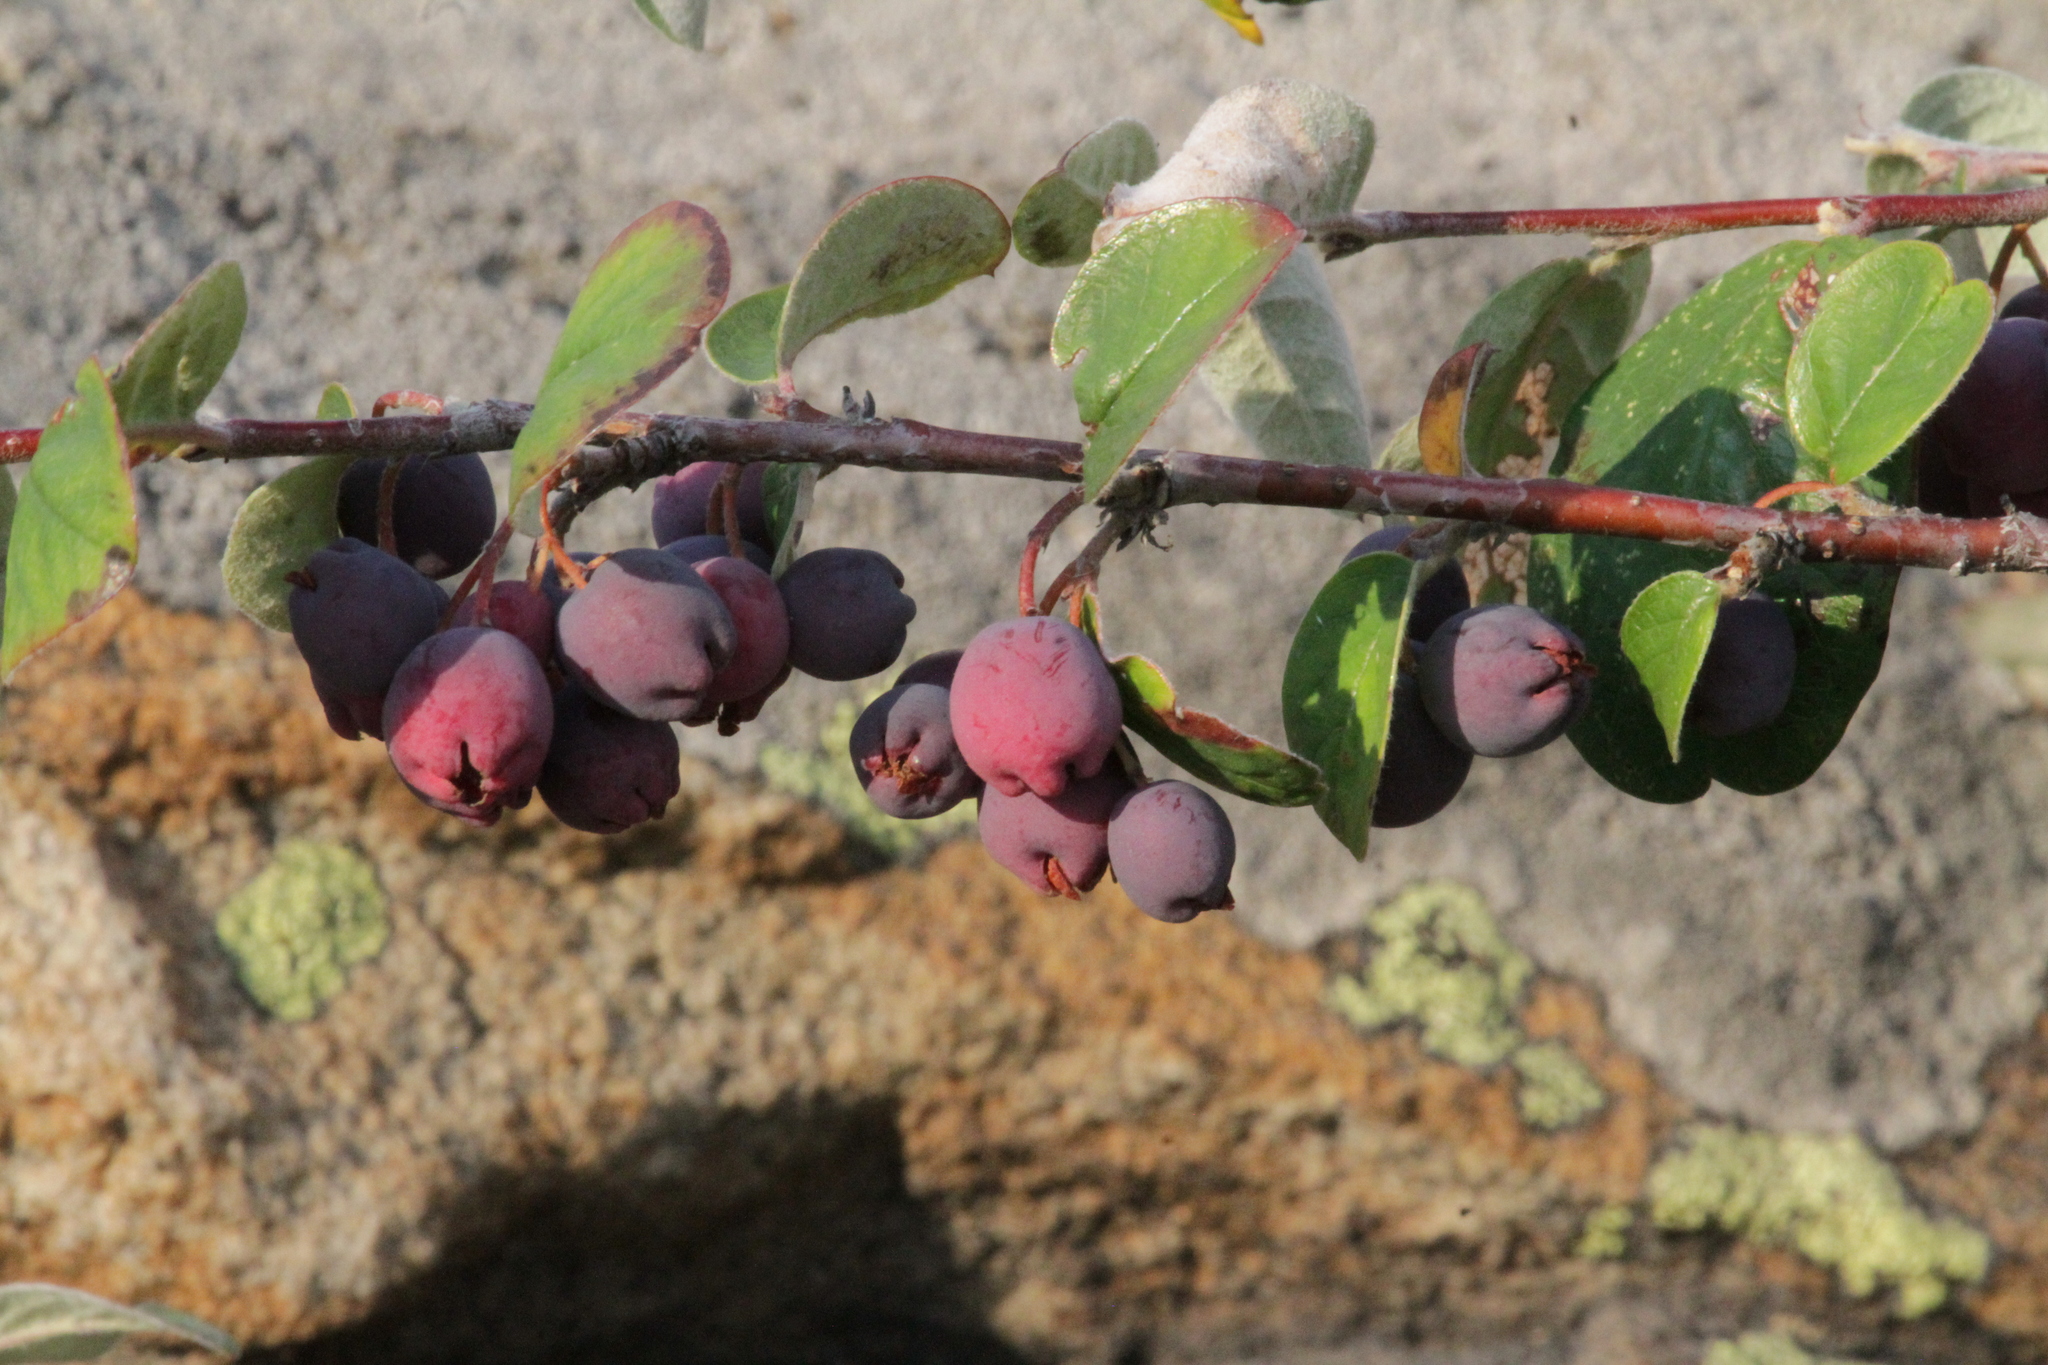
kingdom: Plantae
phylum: Tracheophyta
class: Magnoliopsida
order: Rosales
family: Rosaceae
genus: Cotoneaster
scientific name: Cotoneaster melanocarpus
